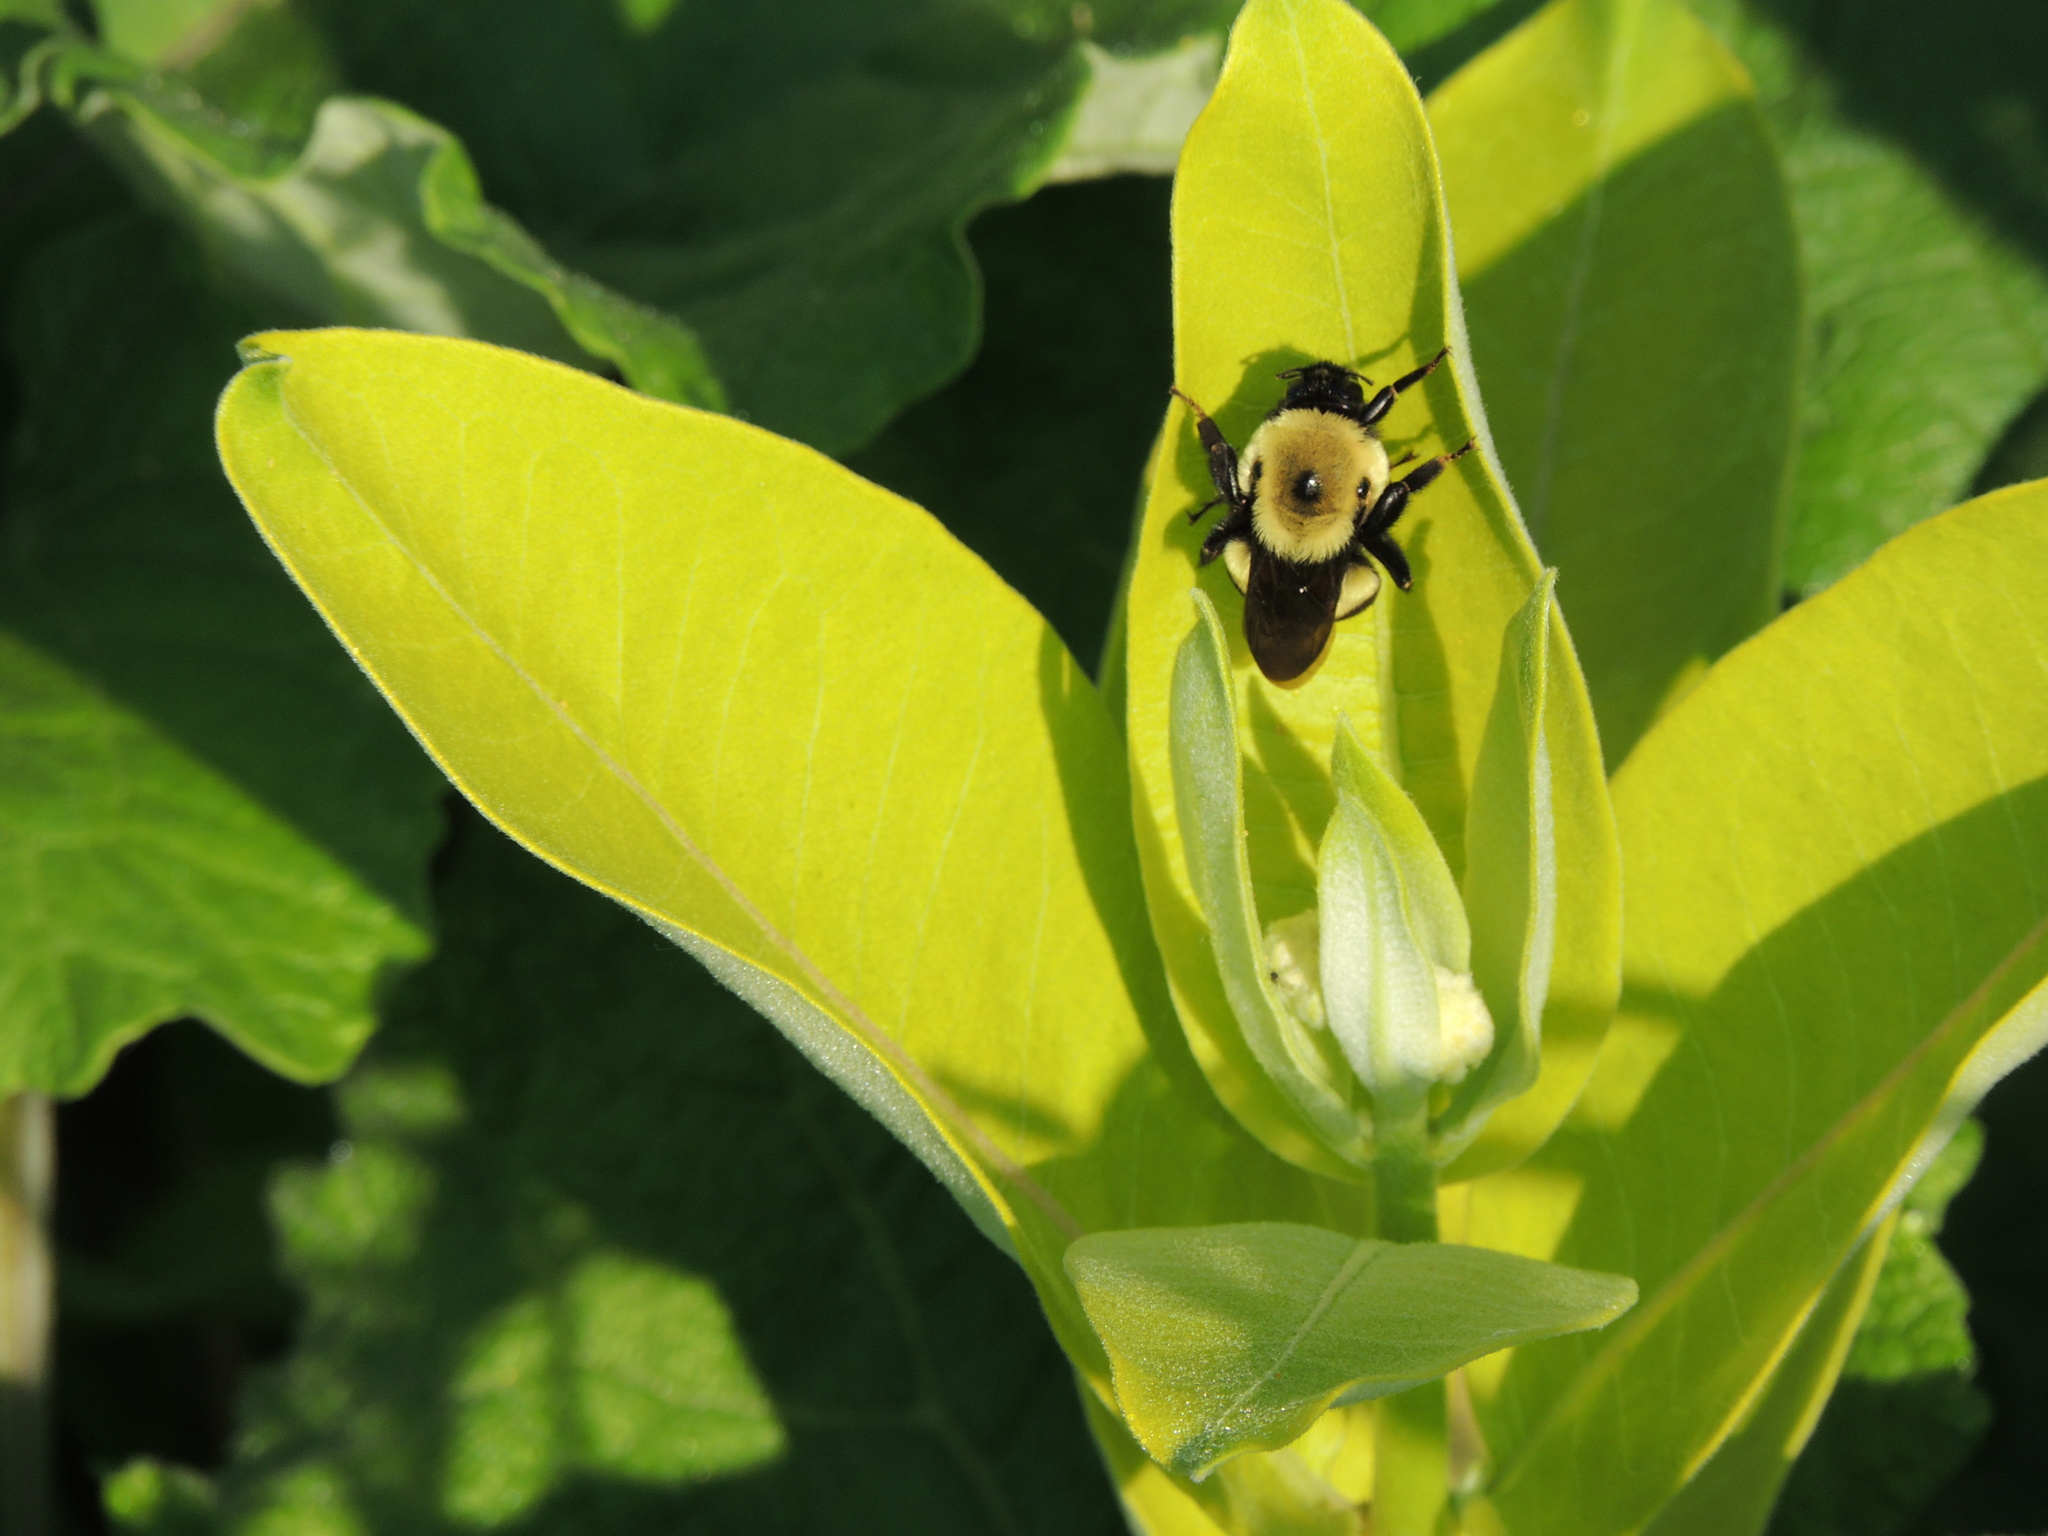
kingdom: Animalia
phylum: Arthropoda
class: Insecta
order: Hymenoptera
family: Apidae
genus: Bombus
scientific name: Bombus griseocollis
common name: Brown-belted bumble bee
